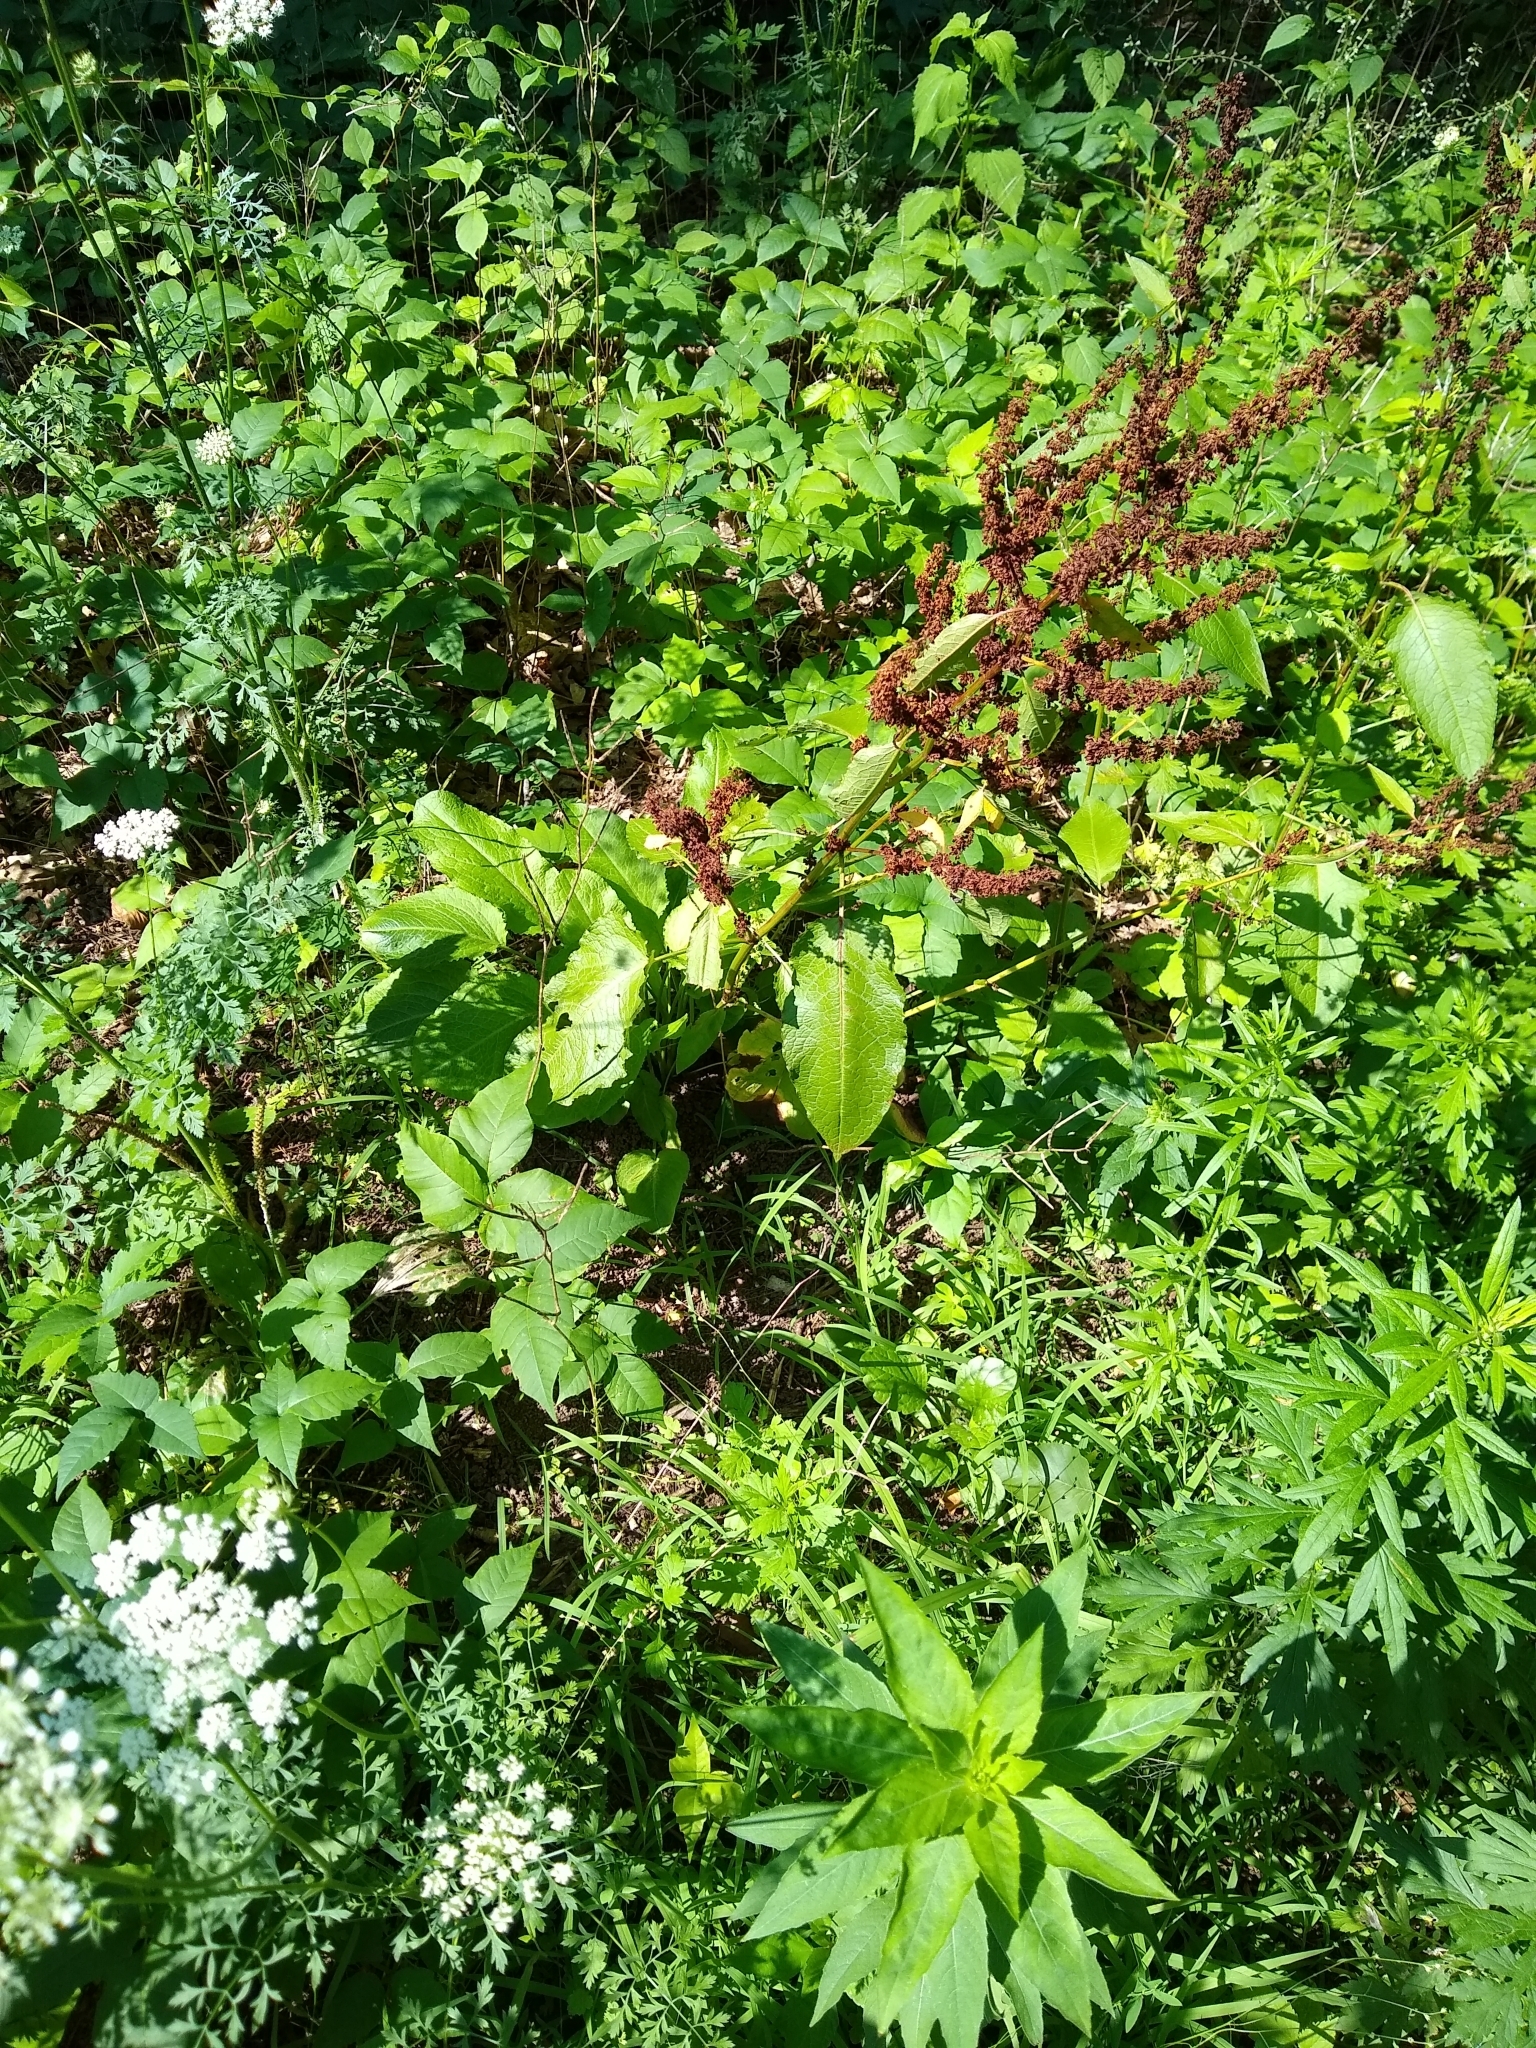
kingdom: Plantae
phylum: Tracheophyta
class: Magnoliopsida
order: Caryophyllales
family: Polygonaceae
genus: Rumex
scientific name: Rumex obtusifolius
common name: Bitter dock
